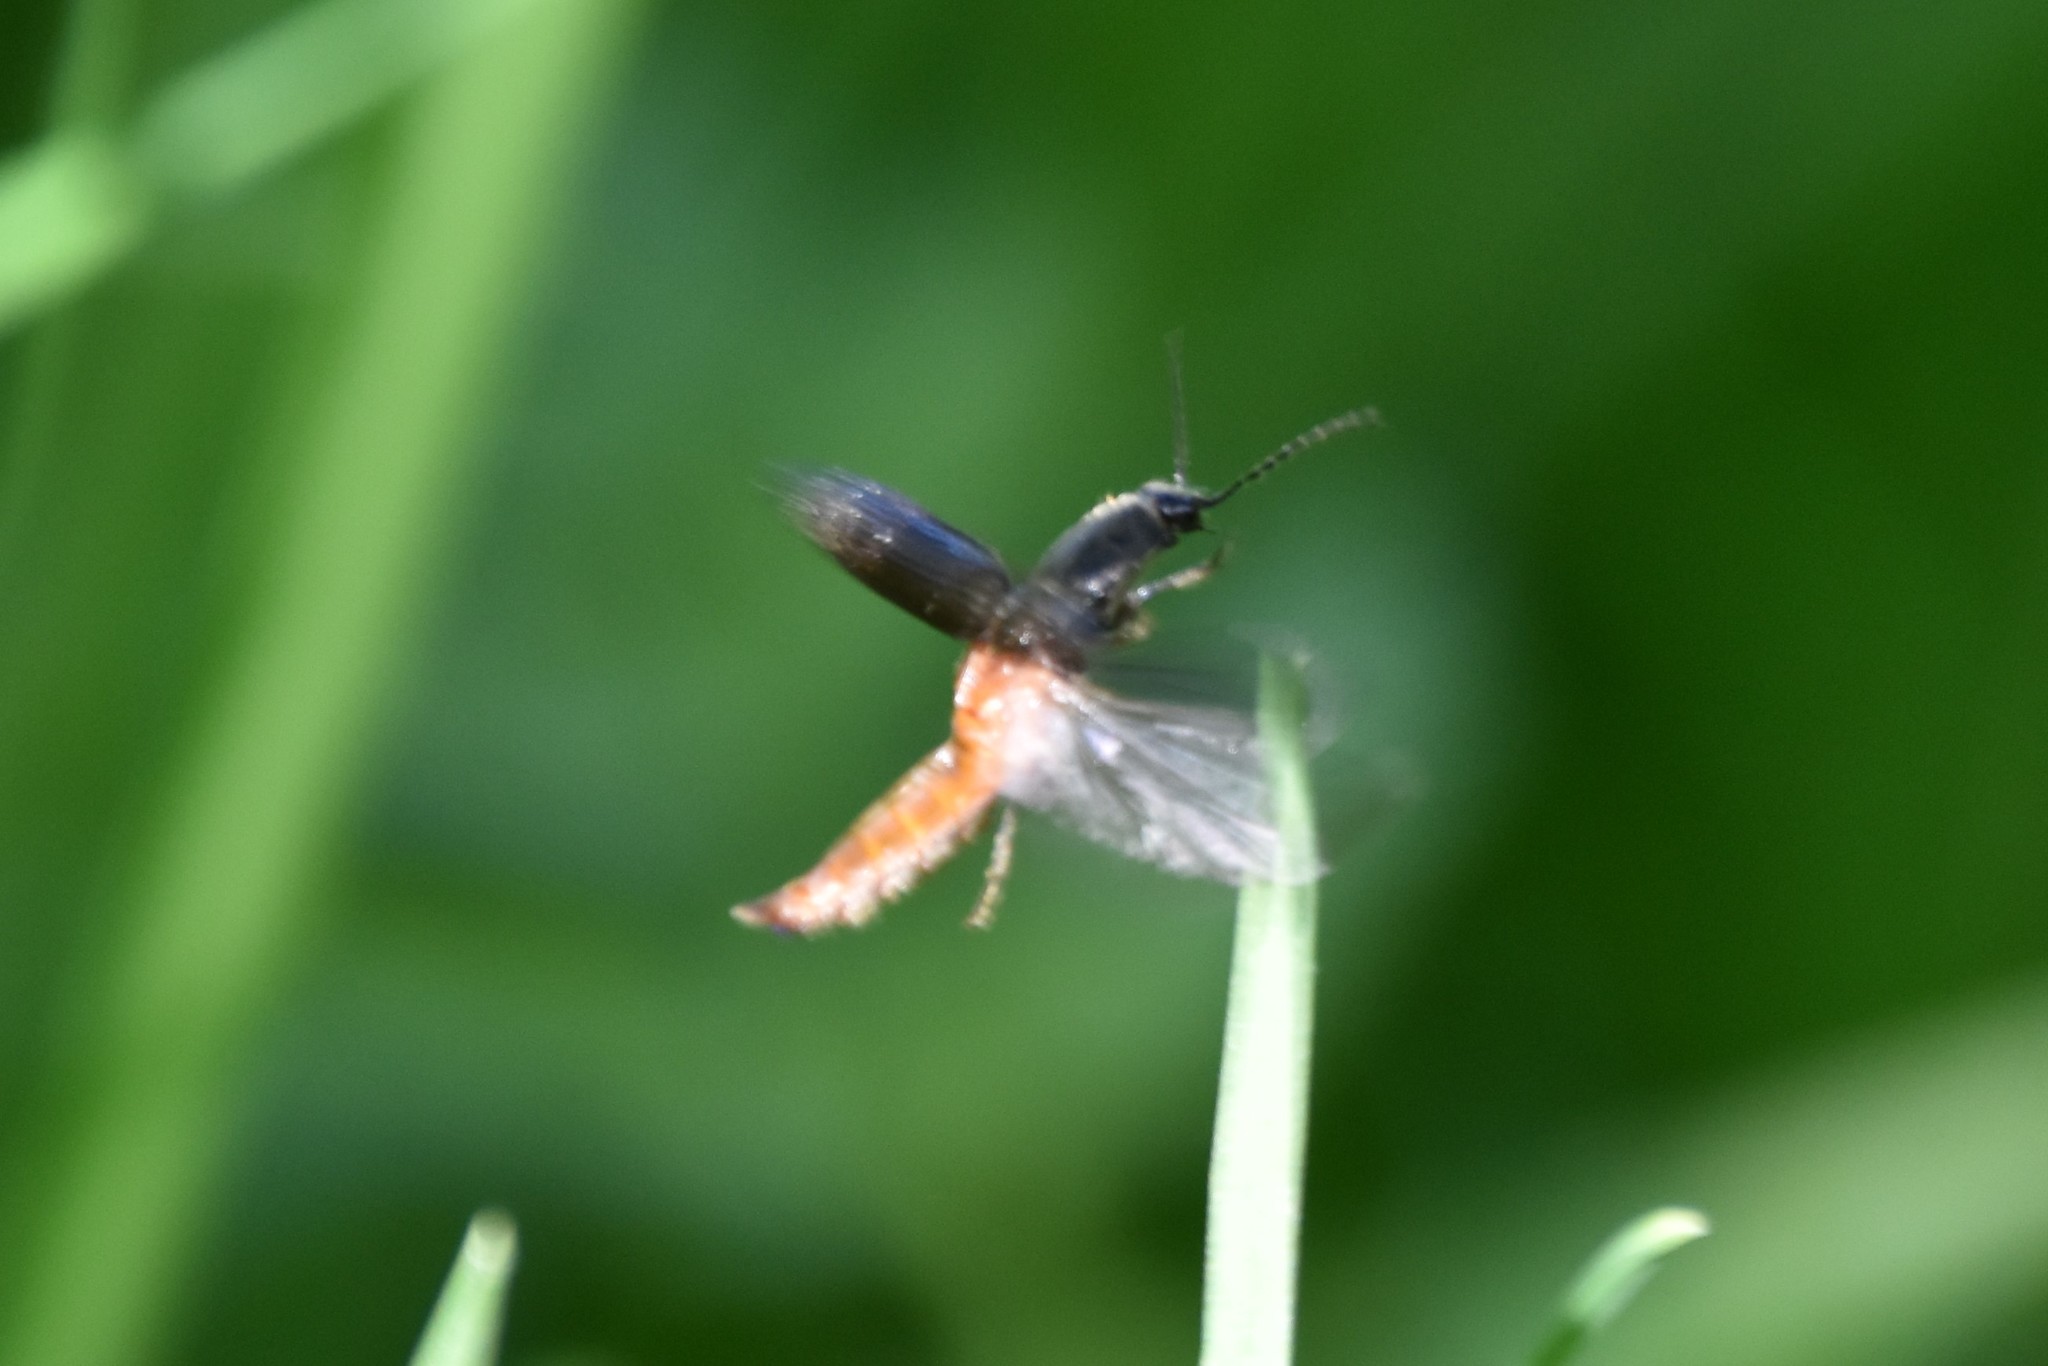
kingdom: Animalia
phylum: Arthropoda
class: Insecta
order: Coleoptera
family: Elateridae
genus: Athous
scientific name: Athous haemorrhoidalis
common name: Red-brown click beetle
